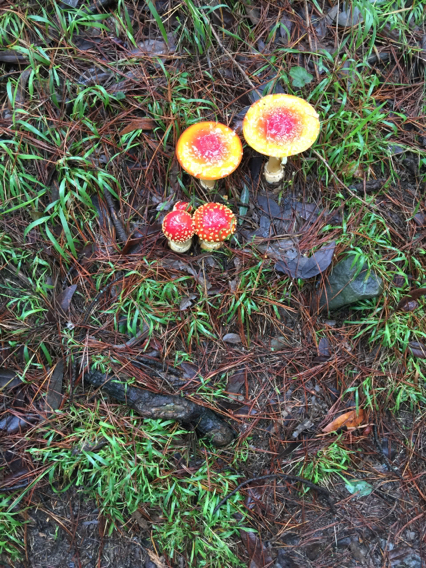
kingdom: Fungi
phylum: Basidiomycota
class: Agaricomycetes
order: Agaricales
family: Amanitaceae
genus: Amanita
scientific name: Amanita muscaria
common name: Fly agaric
